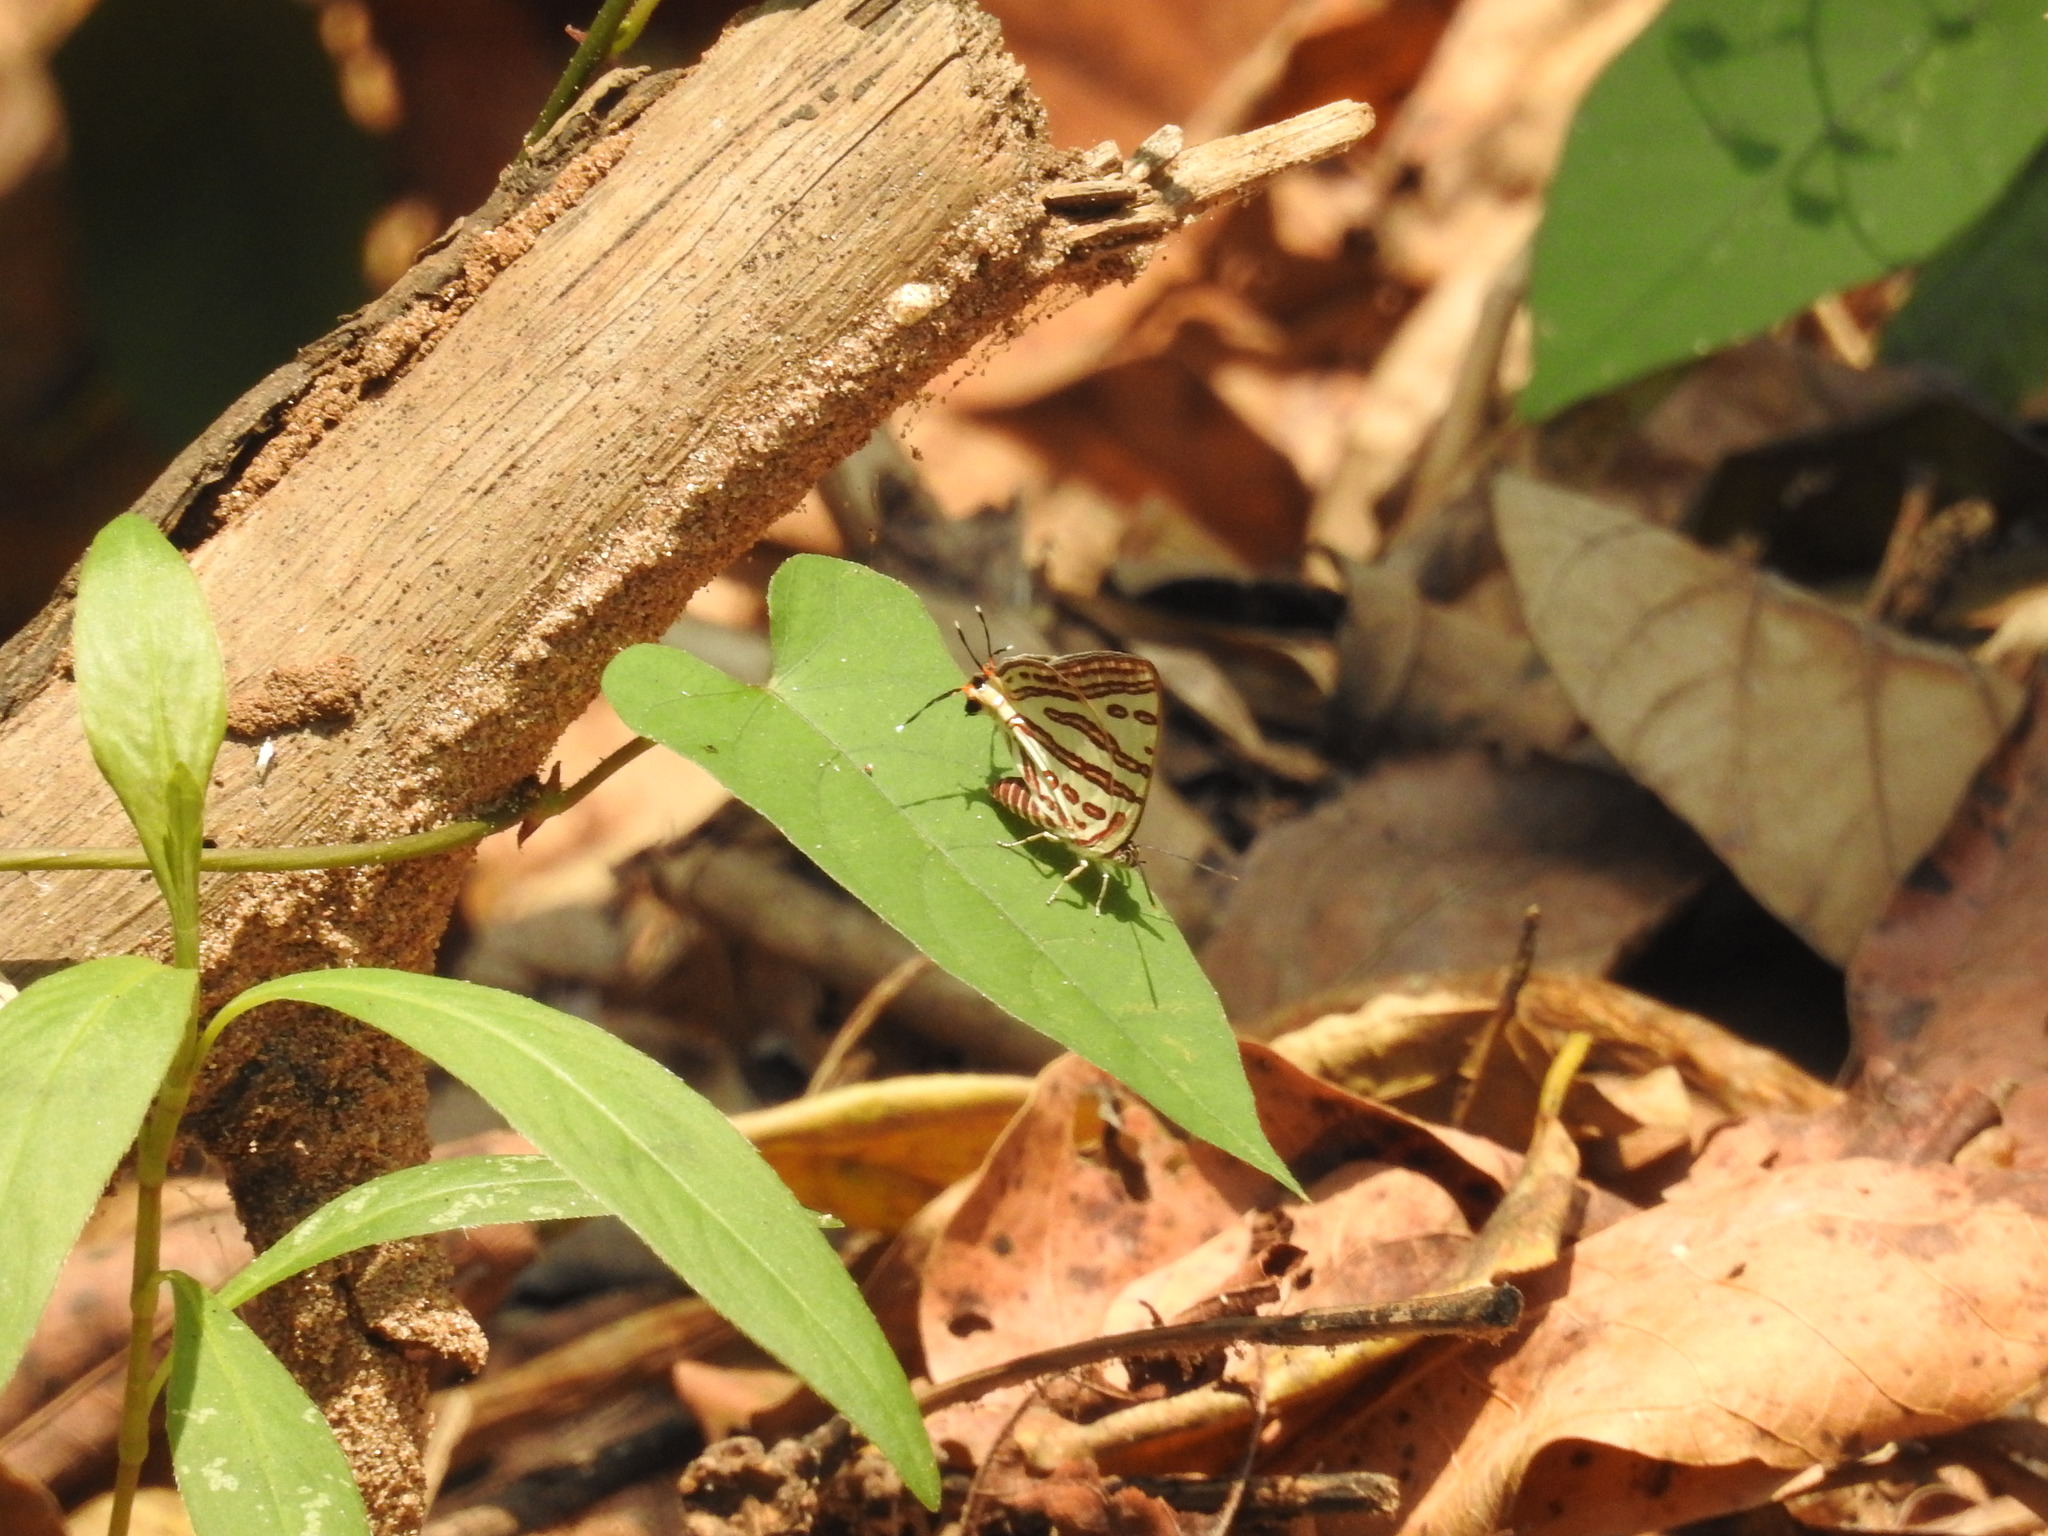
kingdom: Animalia
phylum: Arthropoda
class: Insecta
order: Lepidoptera
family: Lycaenidae
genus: Cigaritis
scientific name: Cigaritis lohita
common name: Long-banded silverline
